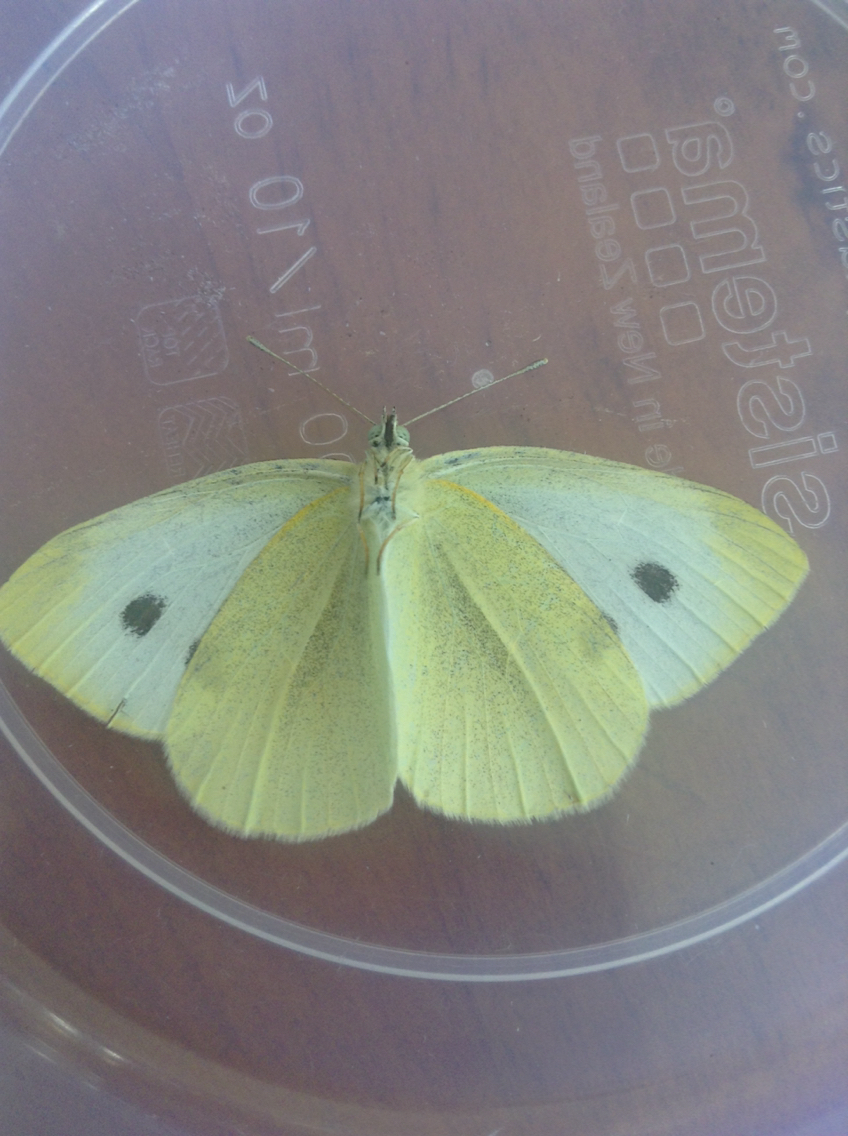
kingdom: Animalia
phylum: Arthropoda
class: Insecta
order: Lepidoptera
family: Pieridae
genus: Pieris
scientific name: Pieris rapae
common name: Small white
